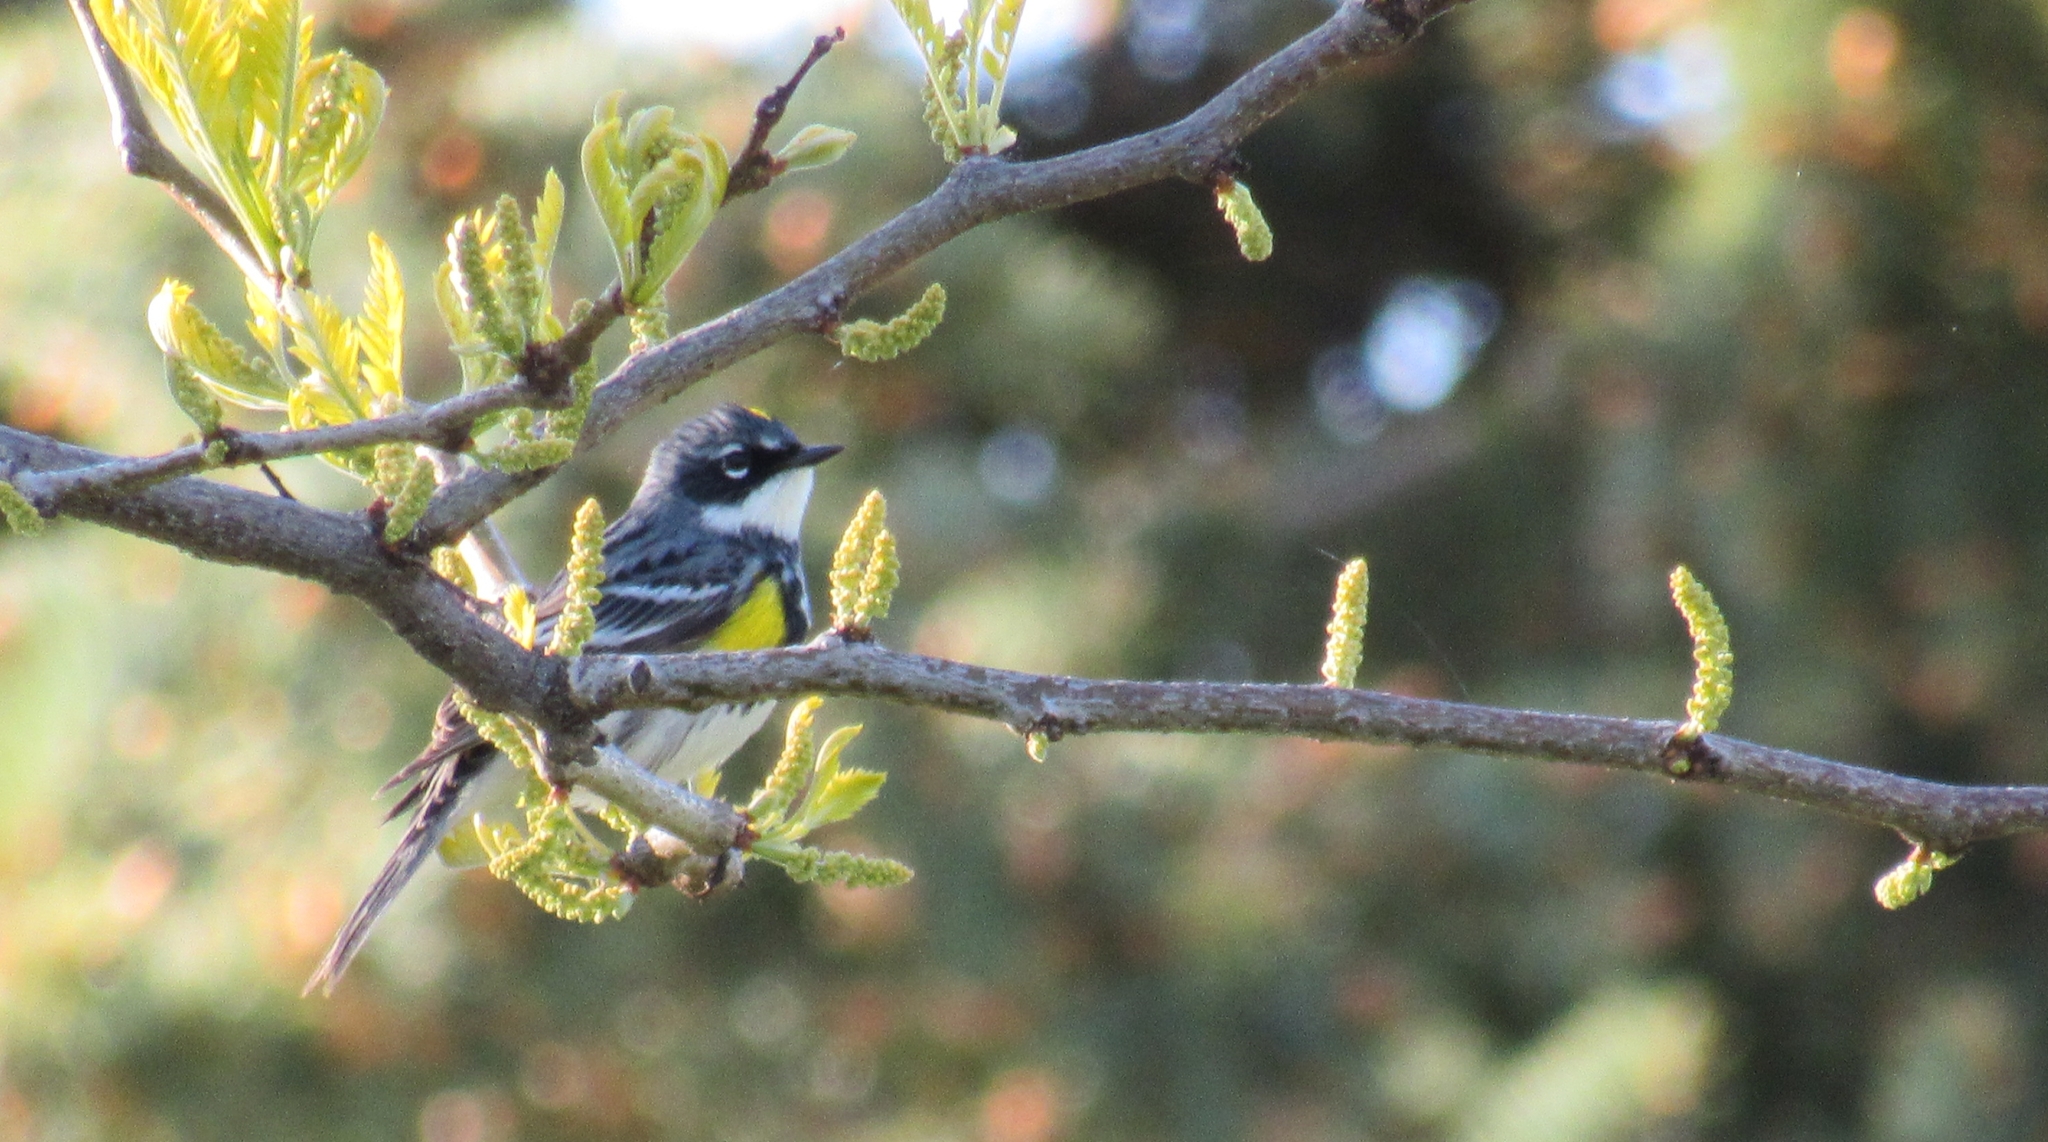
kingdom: Animalia
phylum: Chordata
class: Aves
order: Passeriformes
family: Parulidae
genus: Setophaga
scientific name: Setophaga coronata
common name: Myrtle warbler
